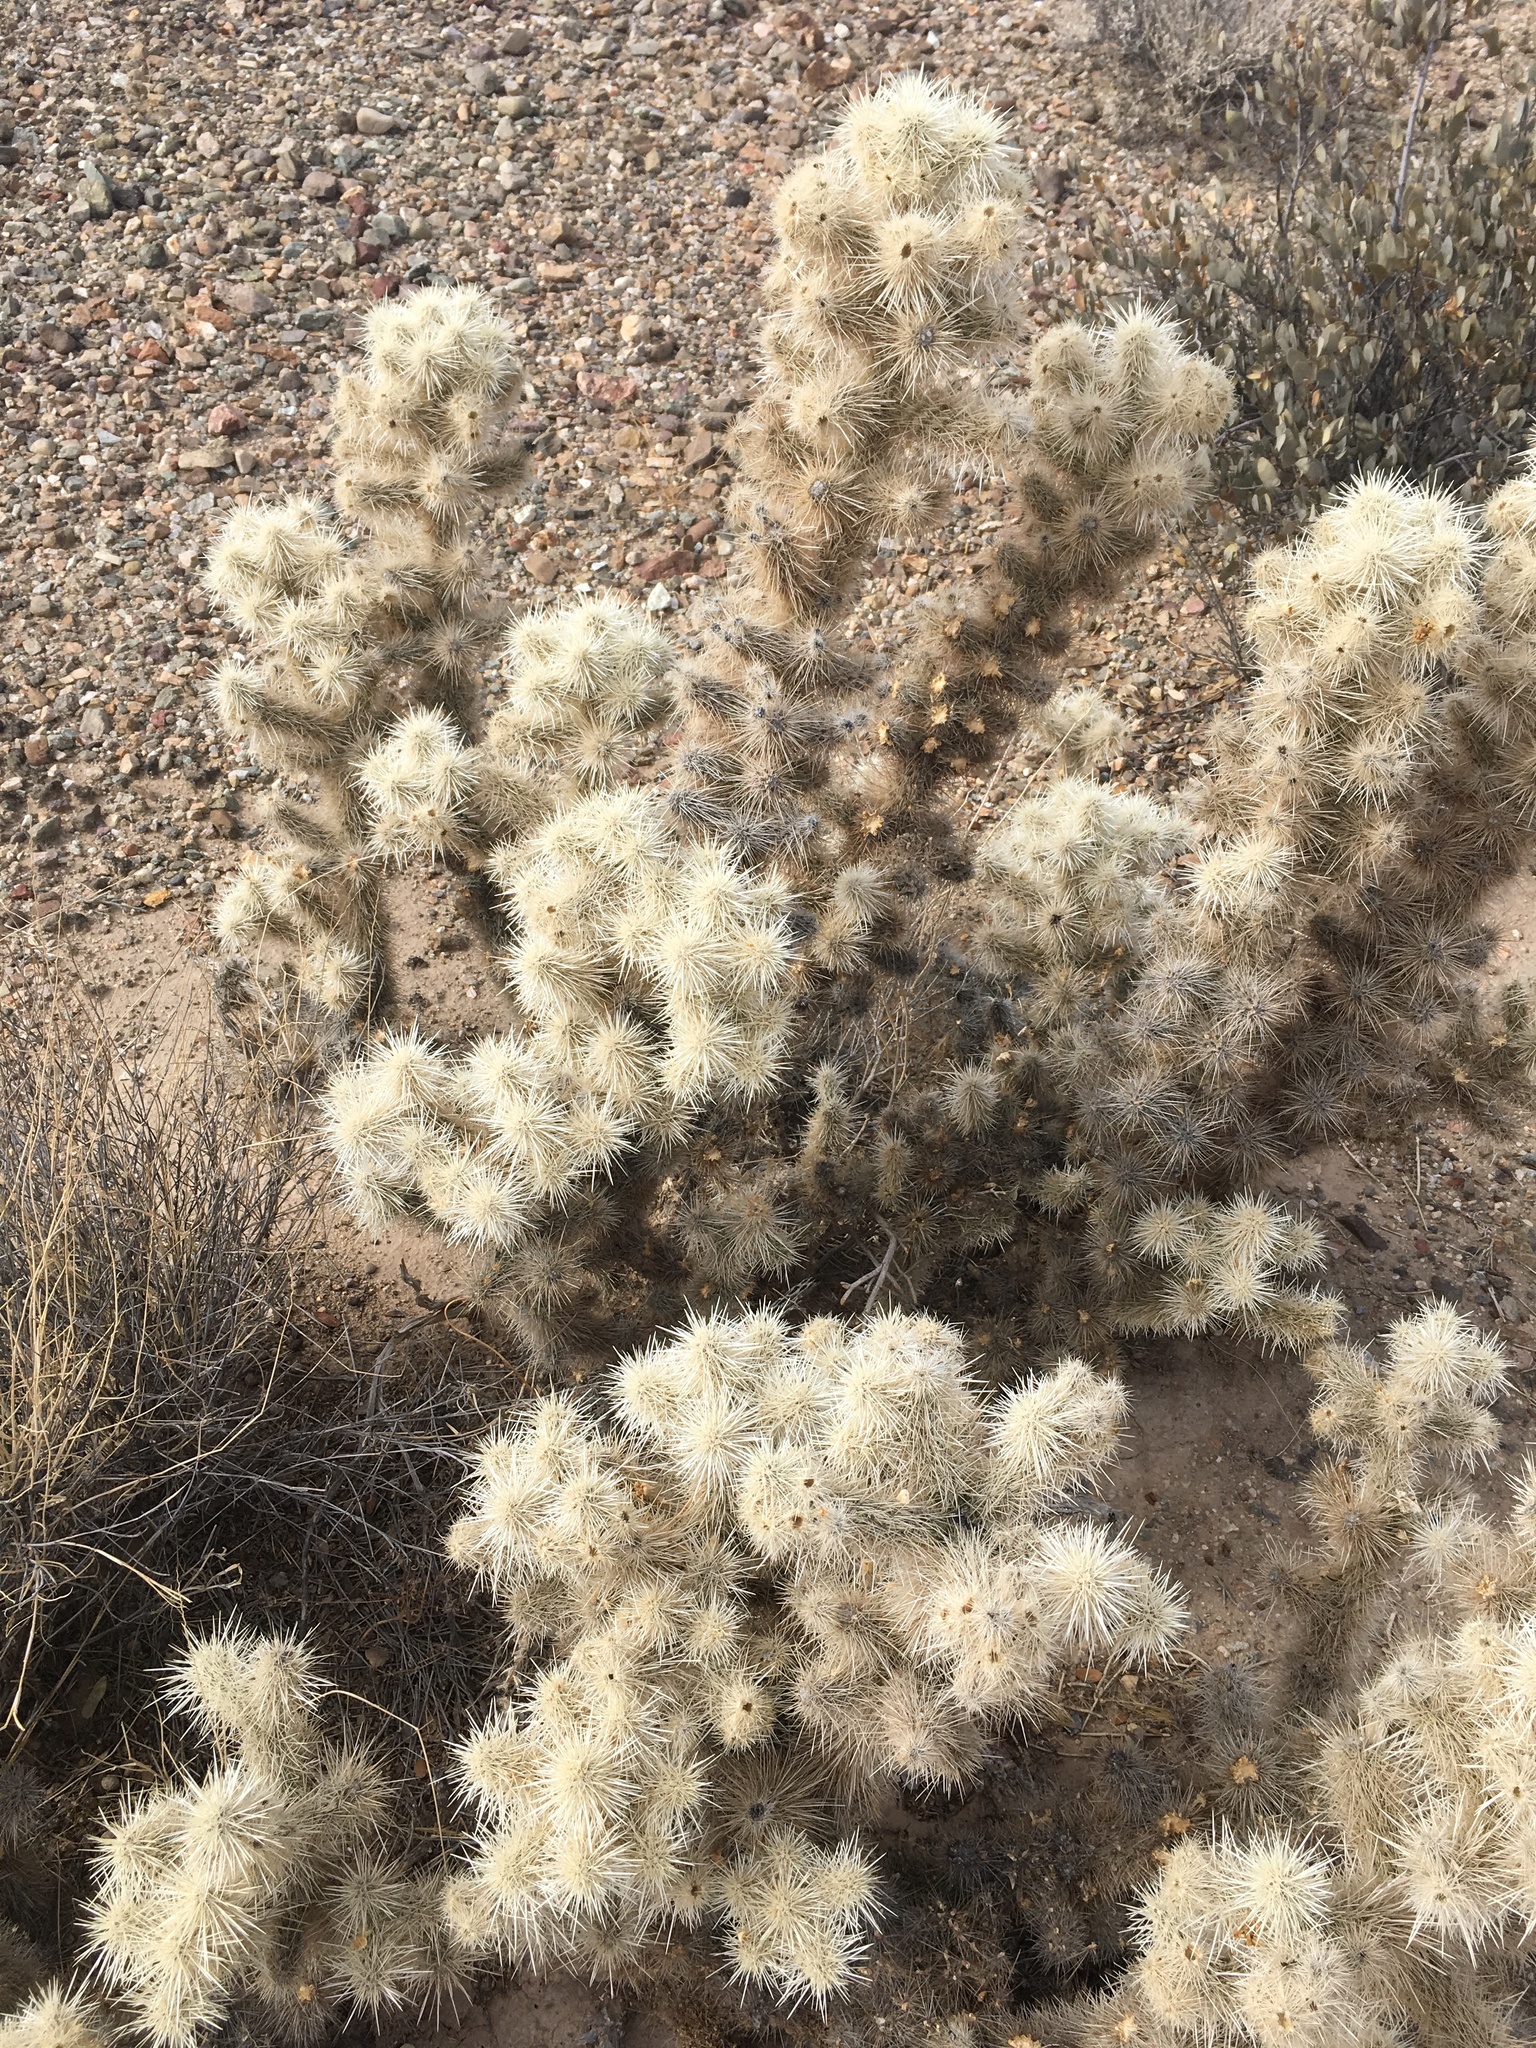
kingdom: Plantae
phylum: Tracheophyta
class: Magnoliopsida
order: Caryophyllales
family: Cactaceae
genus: Cylindropuntia
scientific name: Cylindropuntia chuckwallensis
